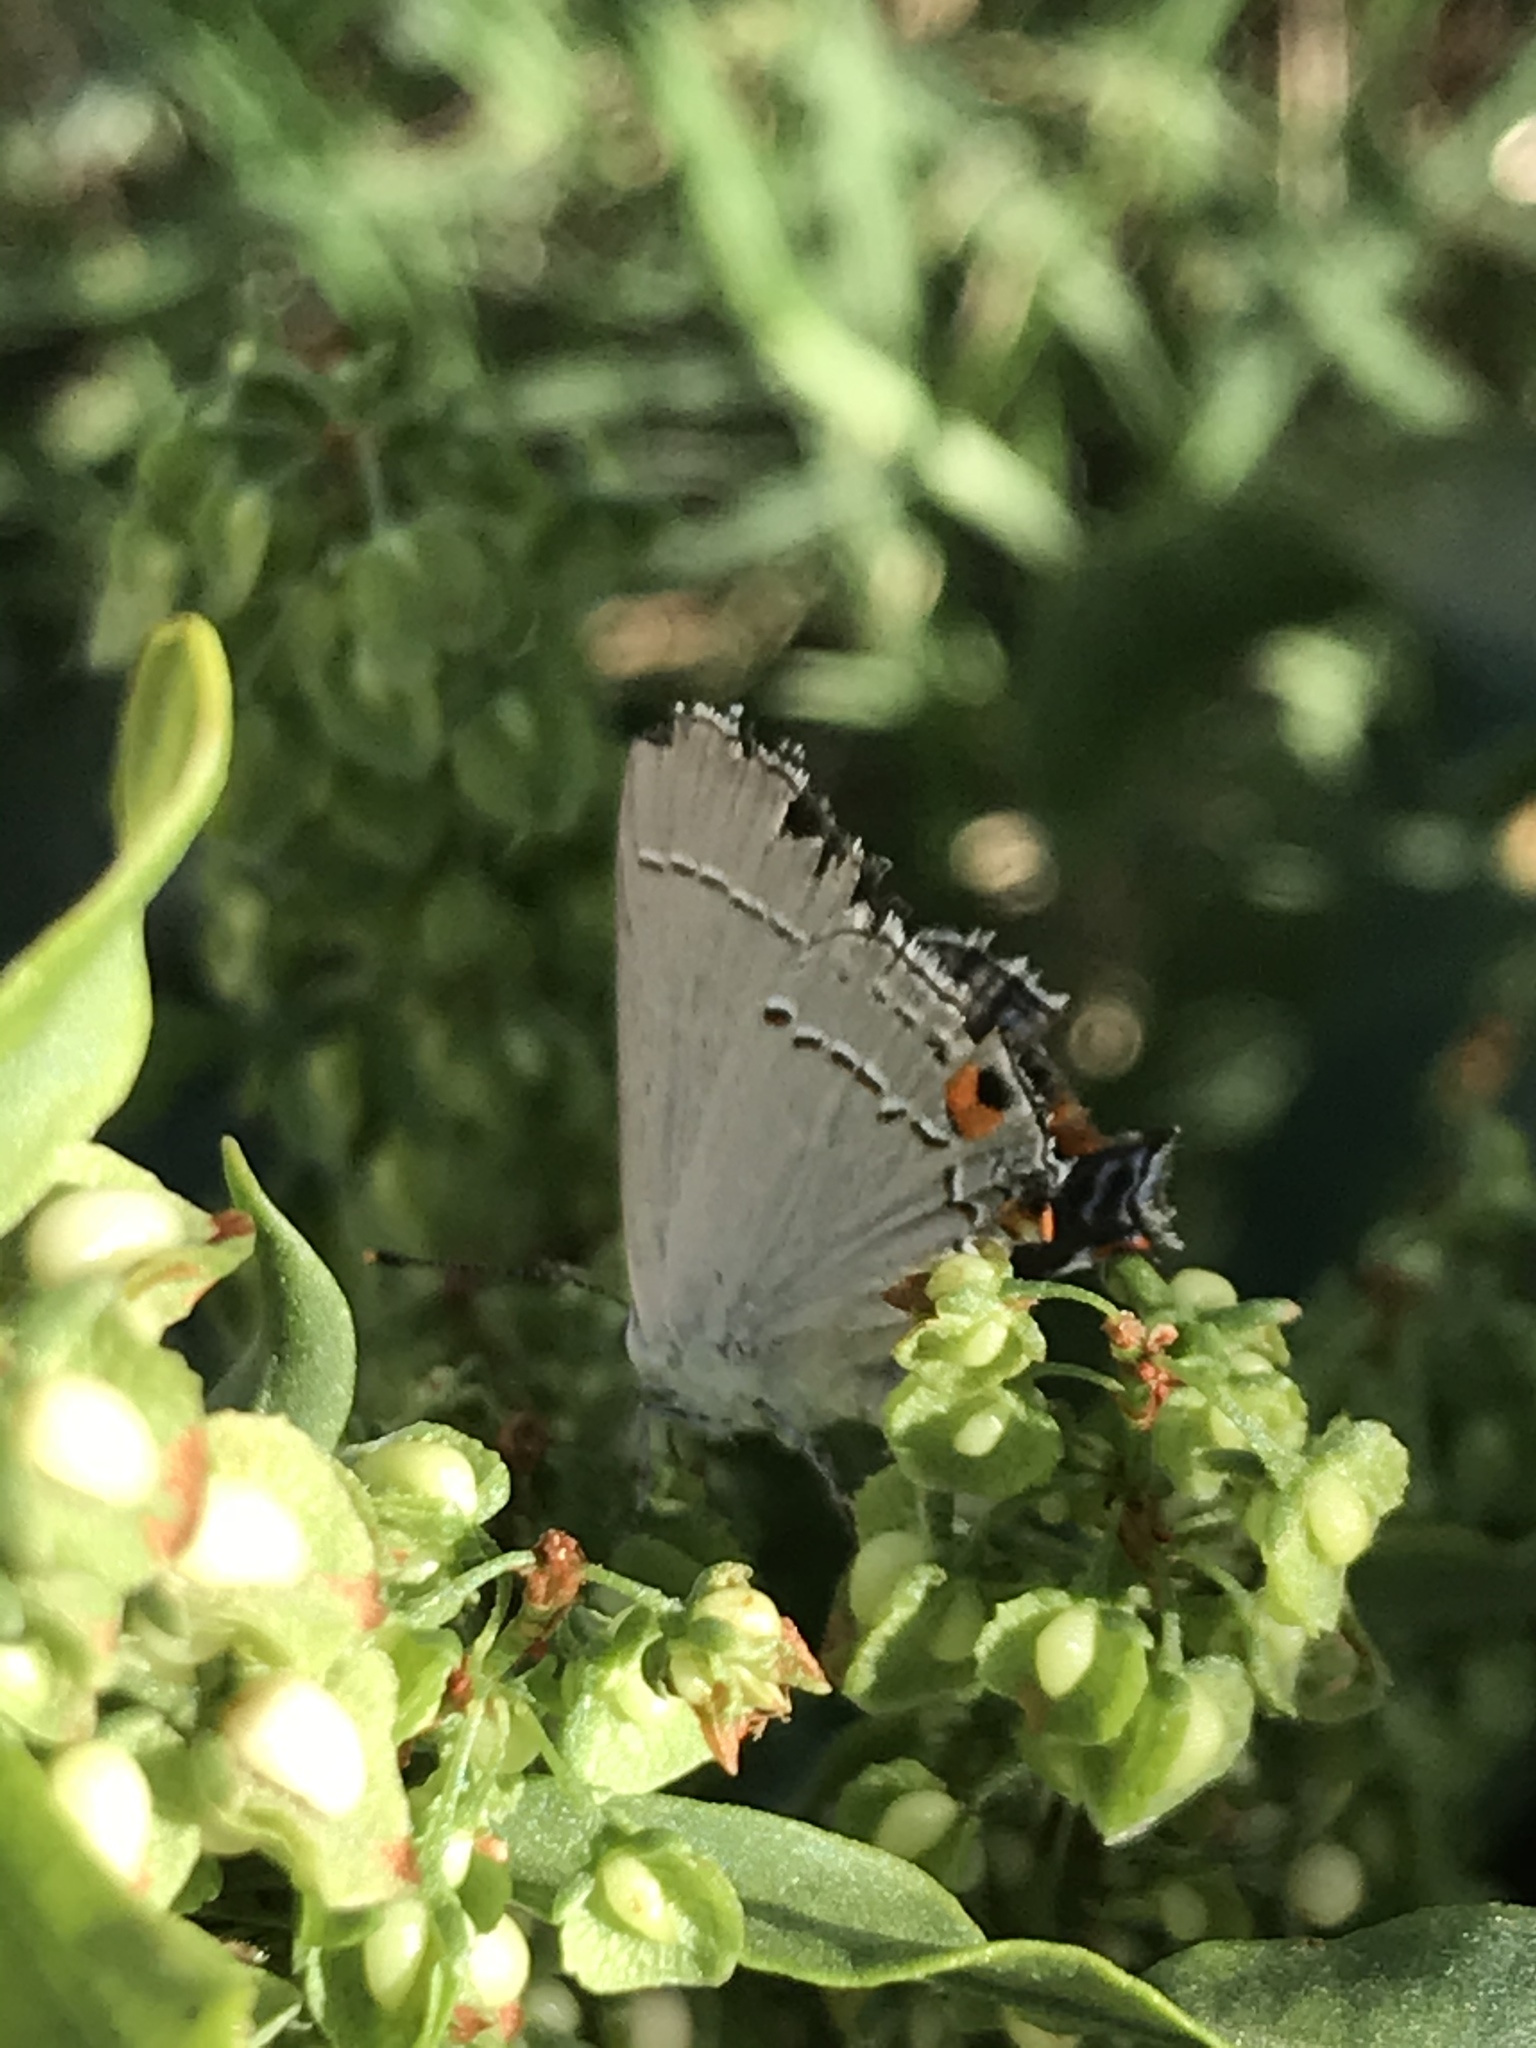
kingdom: Animalia
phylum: Arthropoda
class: Insecta
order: Lepidoptera
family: Lycaenidae
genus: Strymon
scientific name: Strymon melinus
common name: Gray hairstreak
